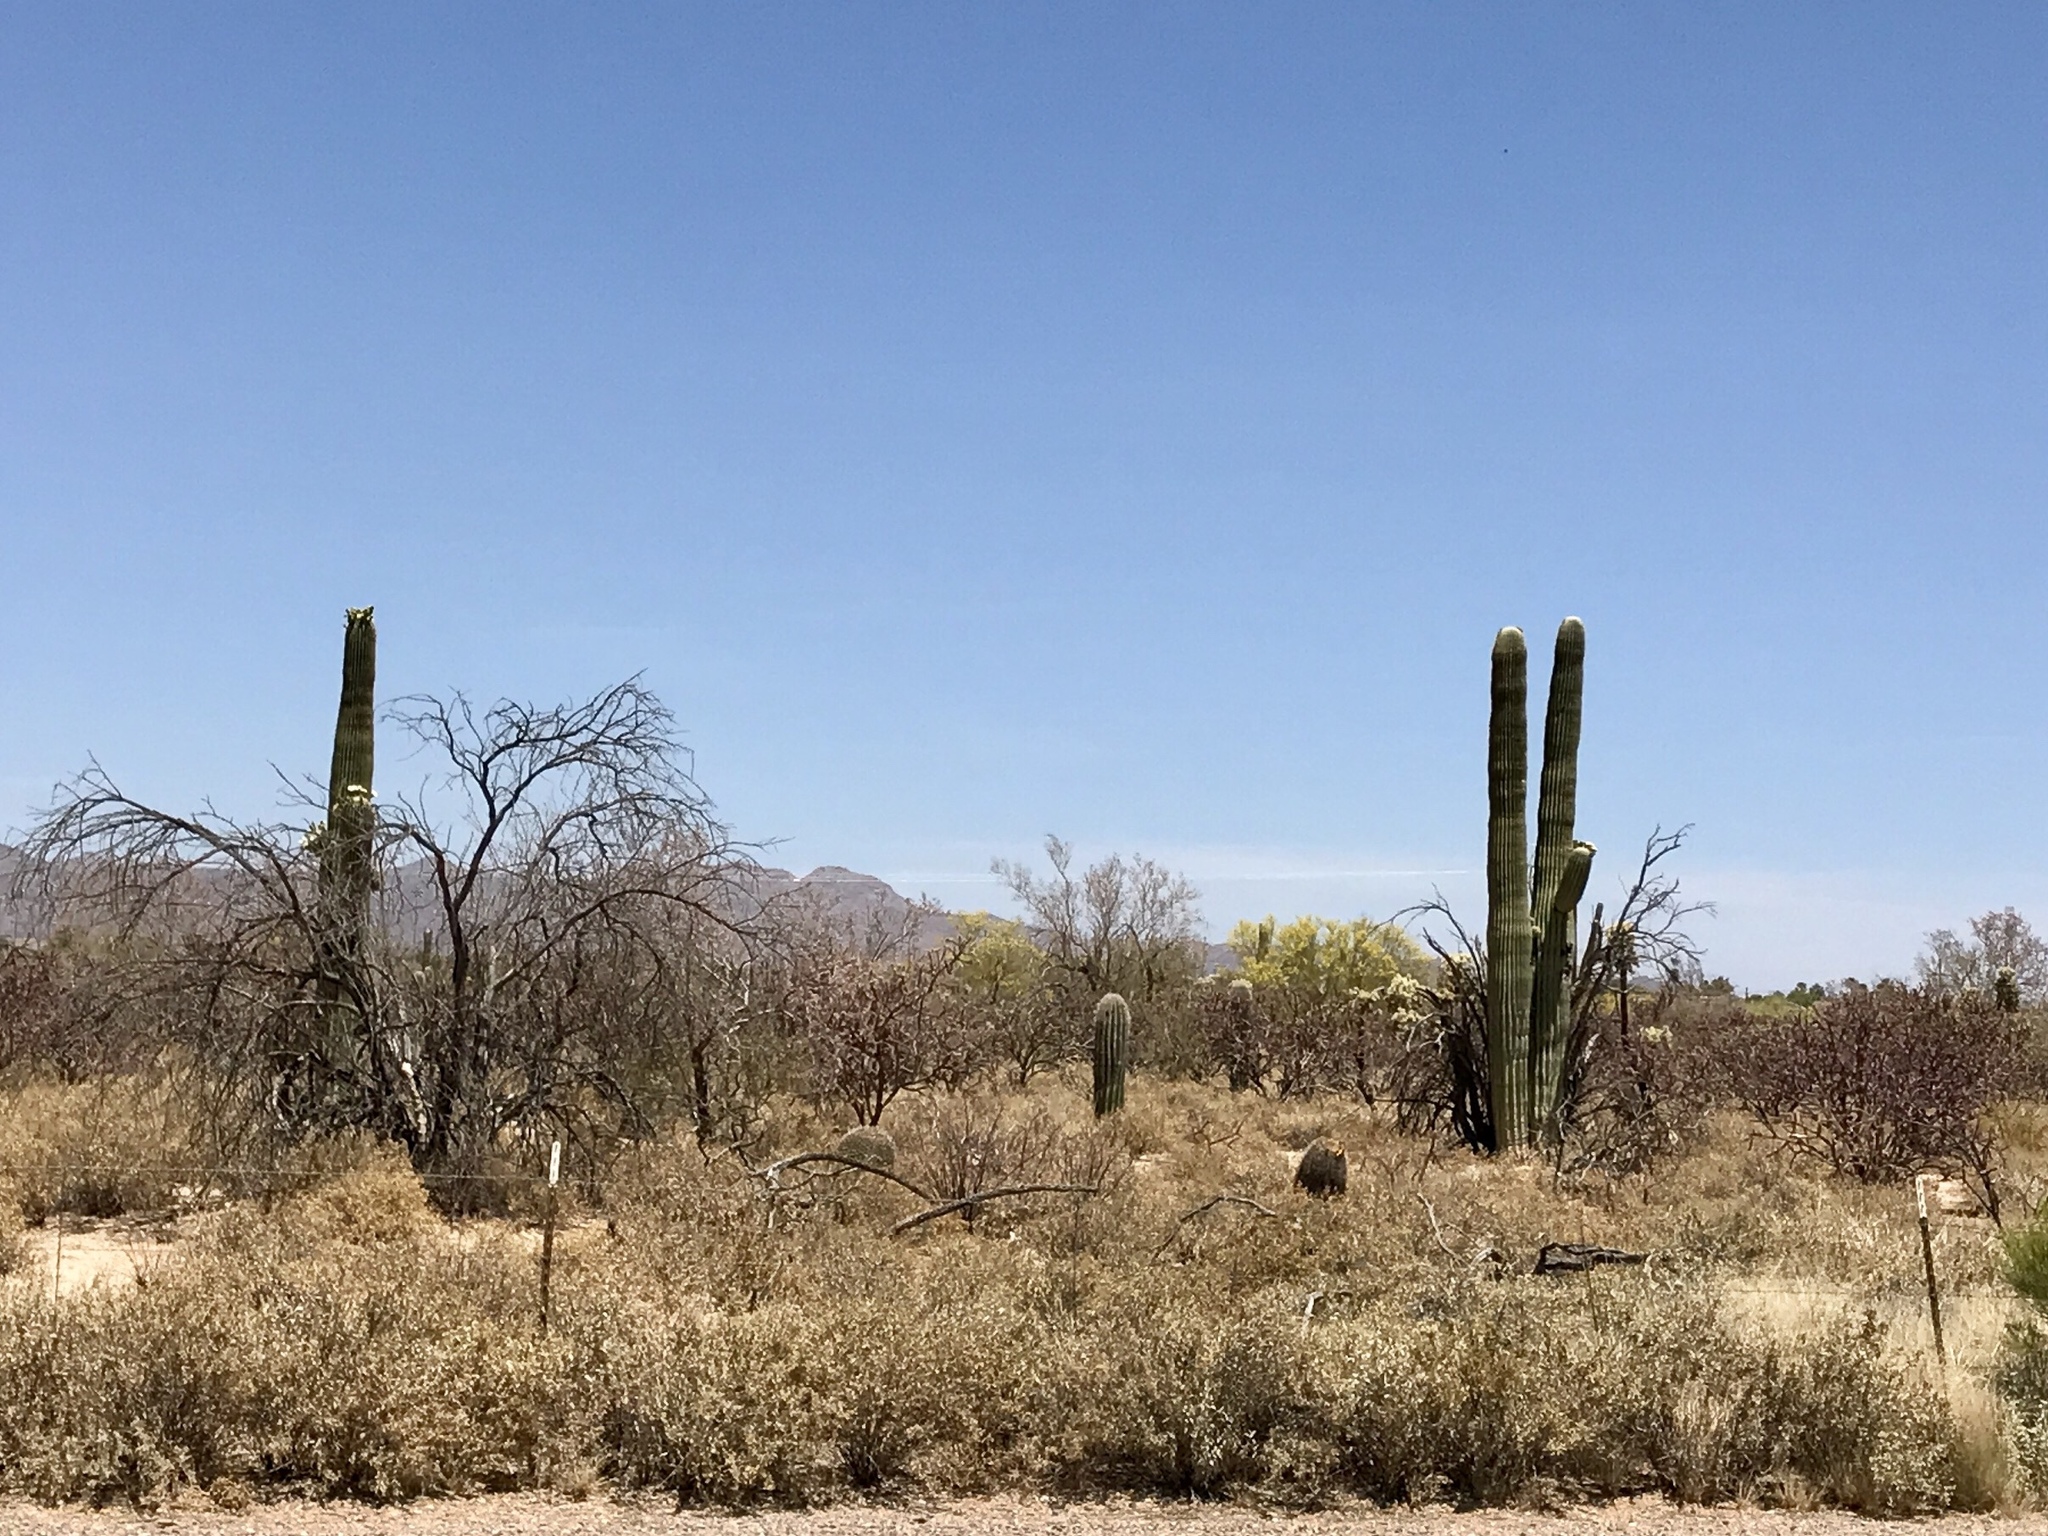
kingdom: Plantae
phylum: Tracheophyta
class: Magnoliopsida
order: Caryophyllales
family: Cactaceae
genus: Carnegiea
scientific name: Carnegiea gigantea
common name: Saguaro
